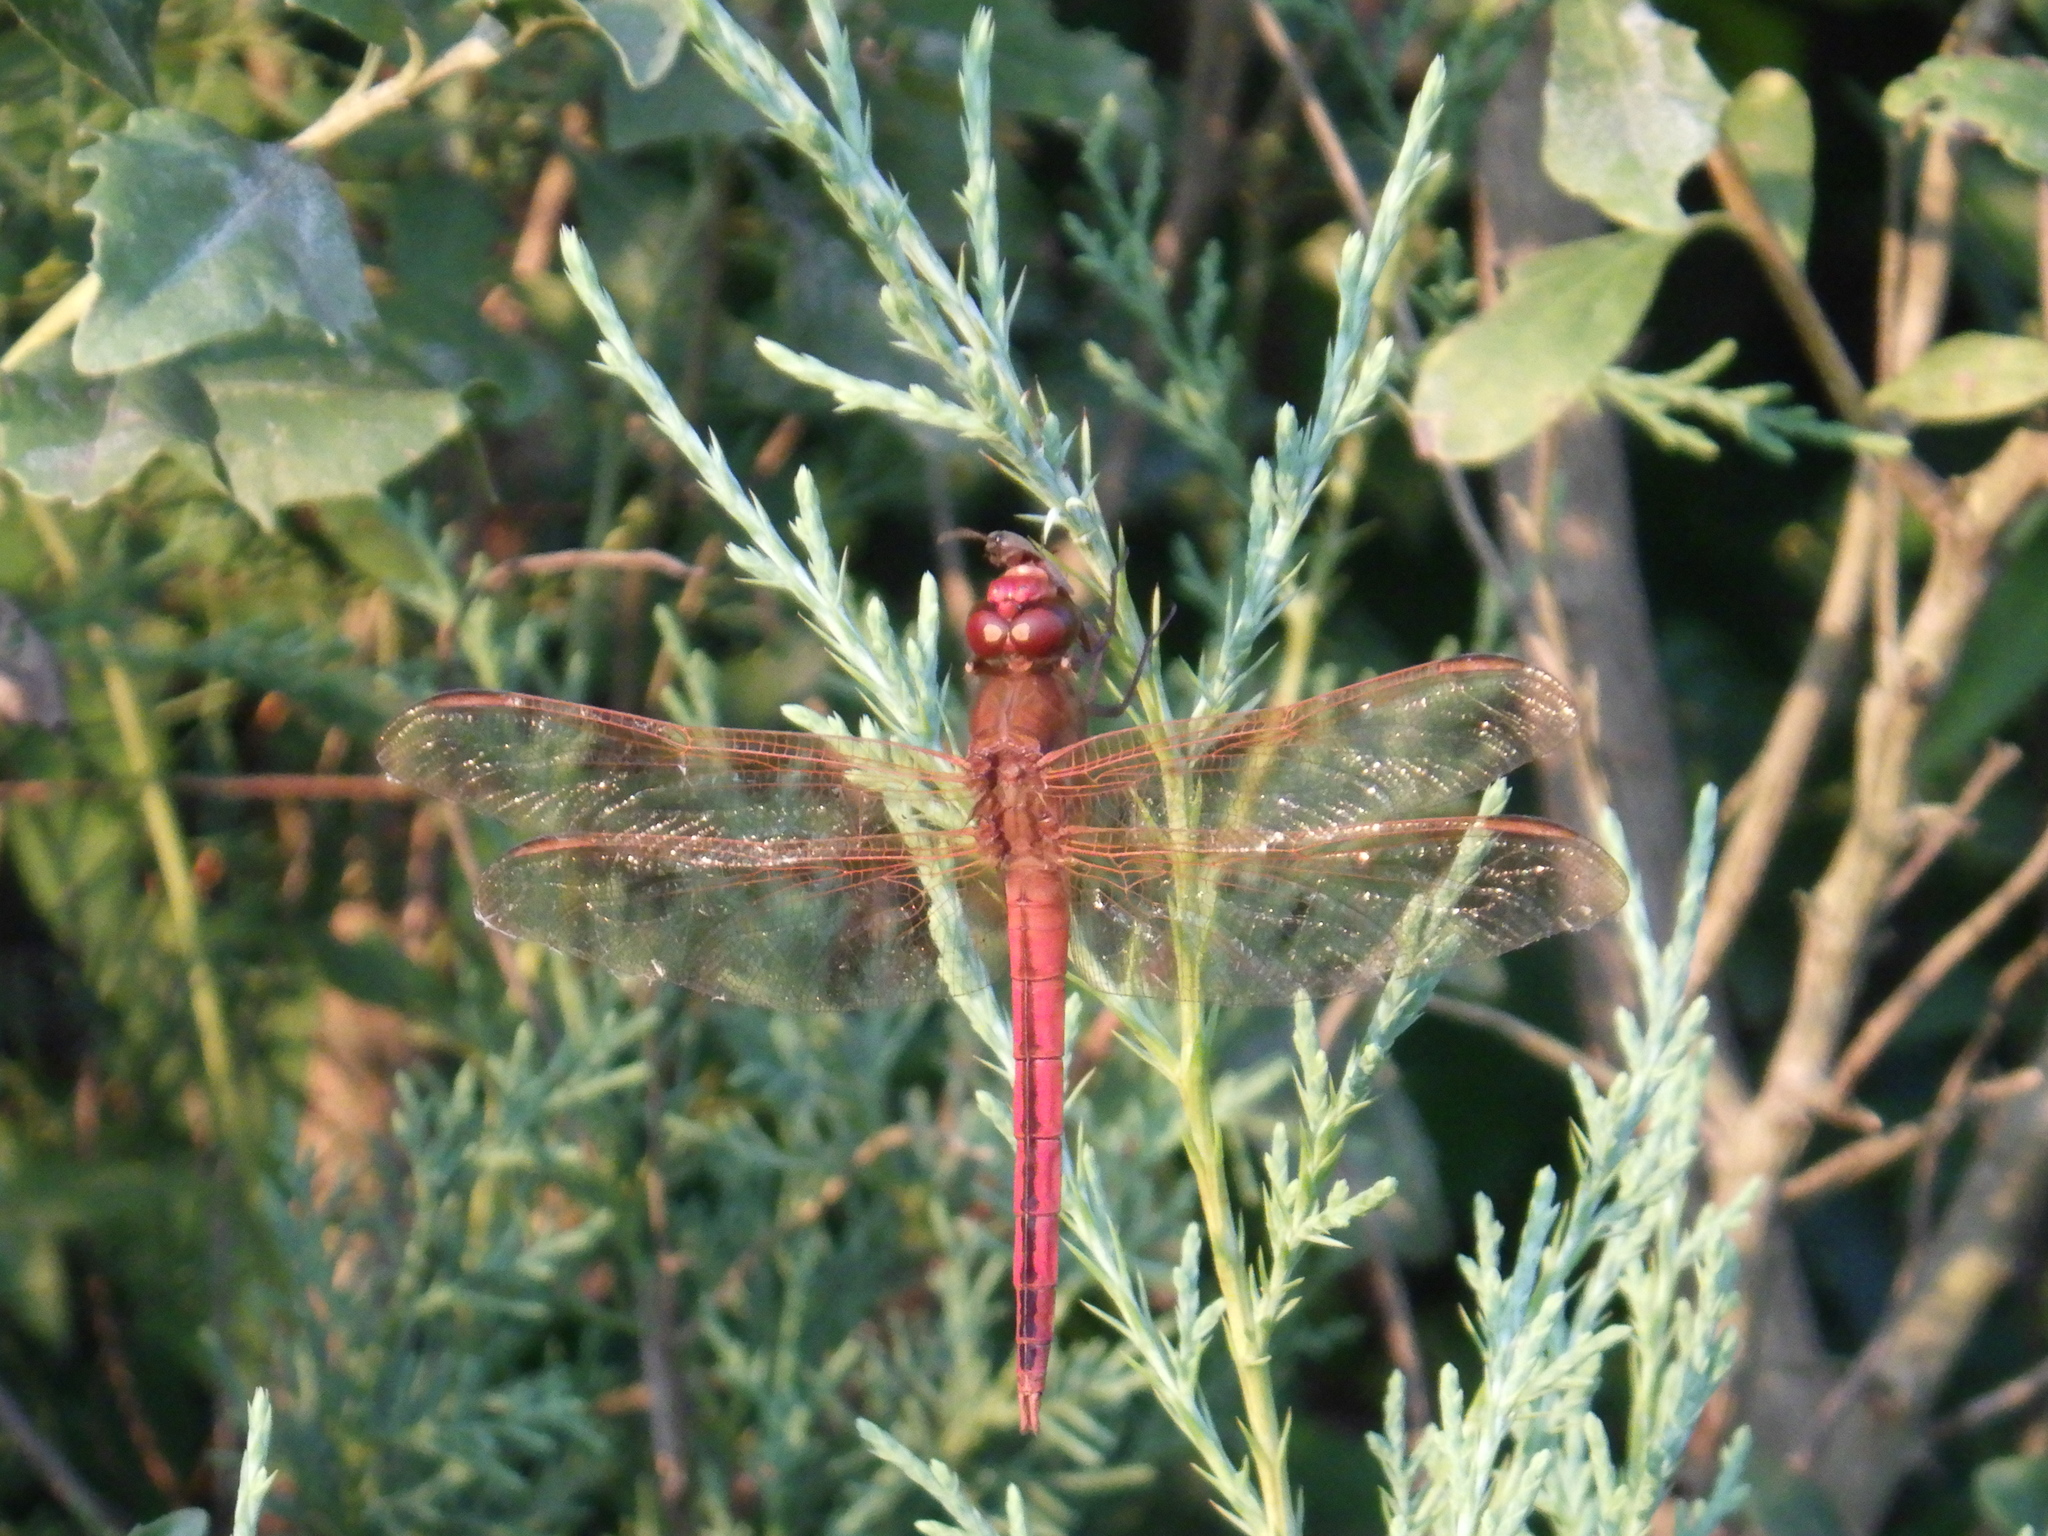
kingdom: Animalia
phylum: Arthropoda
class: Insecta
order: Odonata
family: Libellulidae
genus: Libellula
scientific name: Libellula needhami
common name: Needham's skimmer
